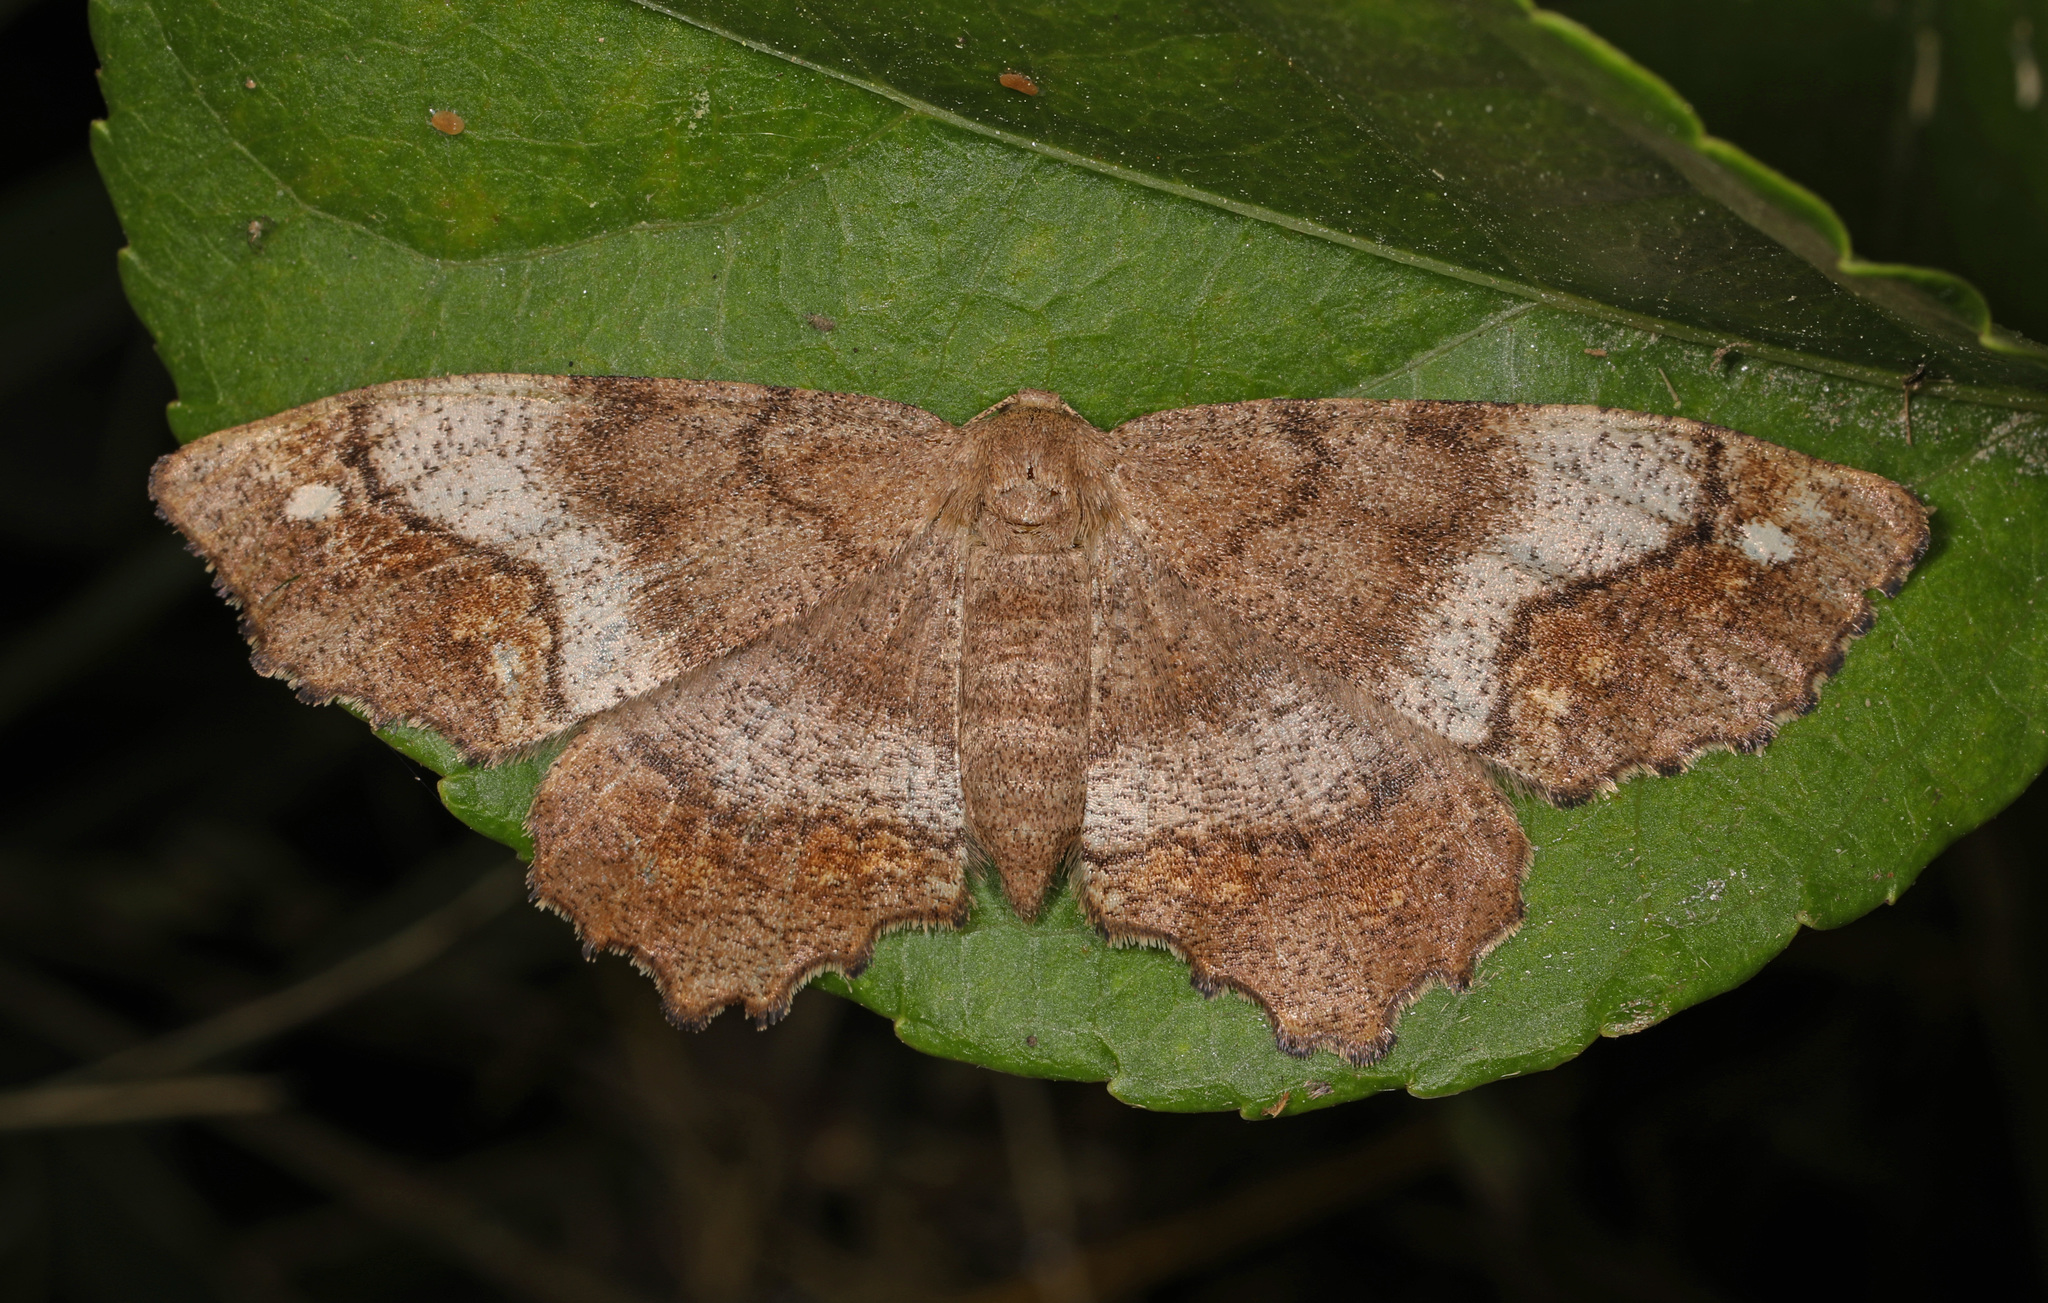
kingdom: Animalia
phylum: Arthropoda
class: Insecta
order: Lepidoptera
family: Geometridae
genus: Hypagyrtis
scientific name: Hypagyrtis unipunctata
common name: One-spotted variant
